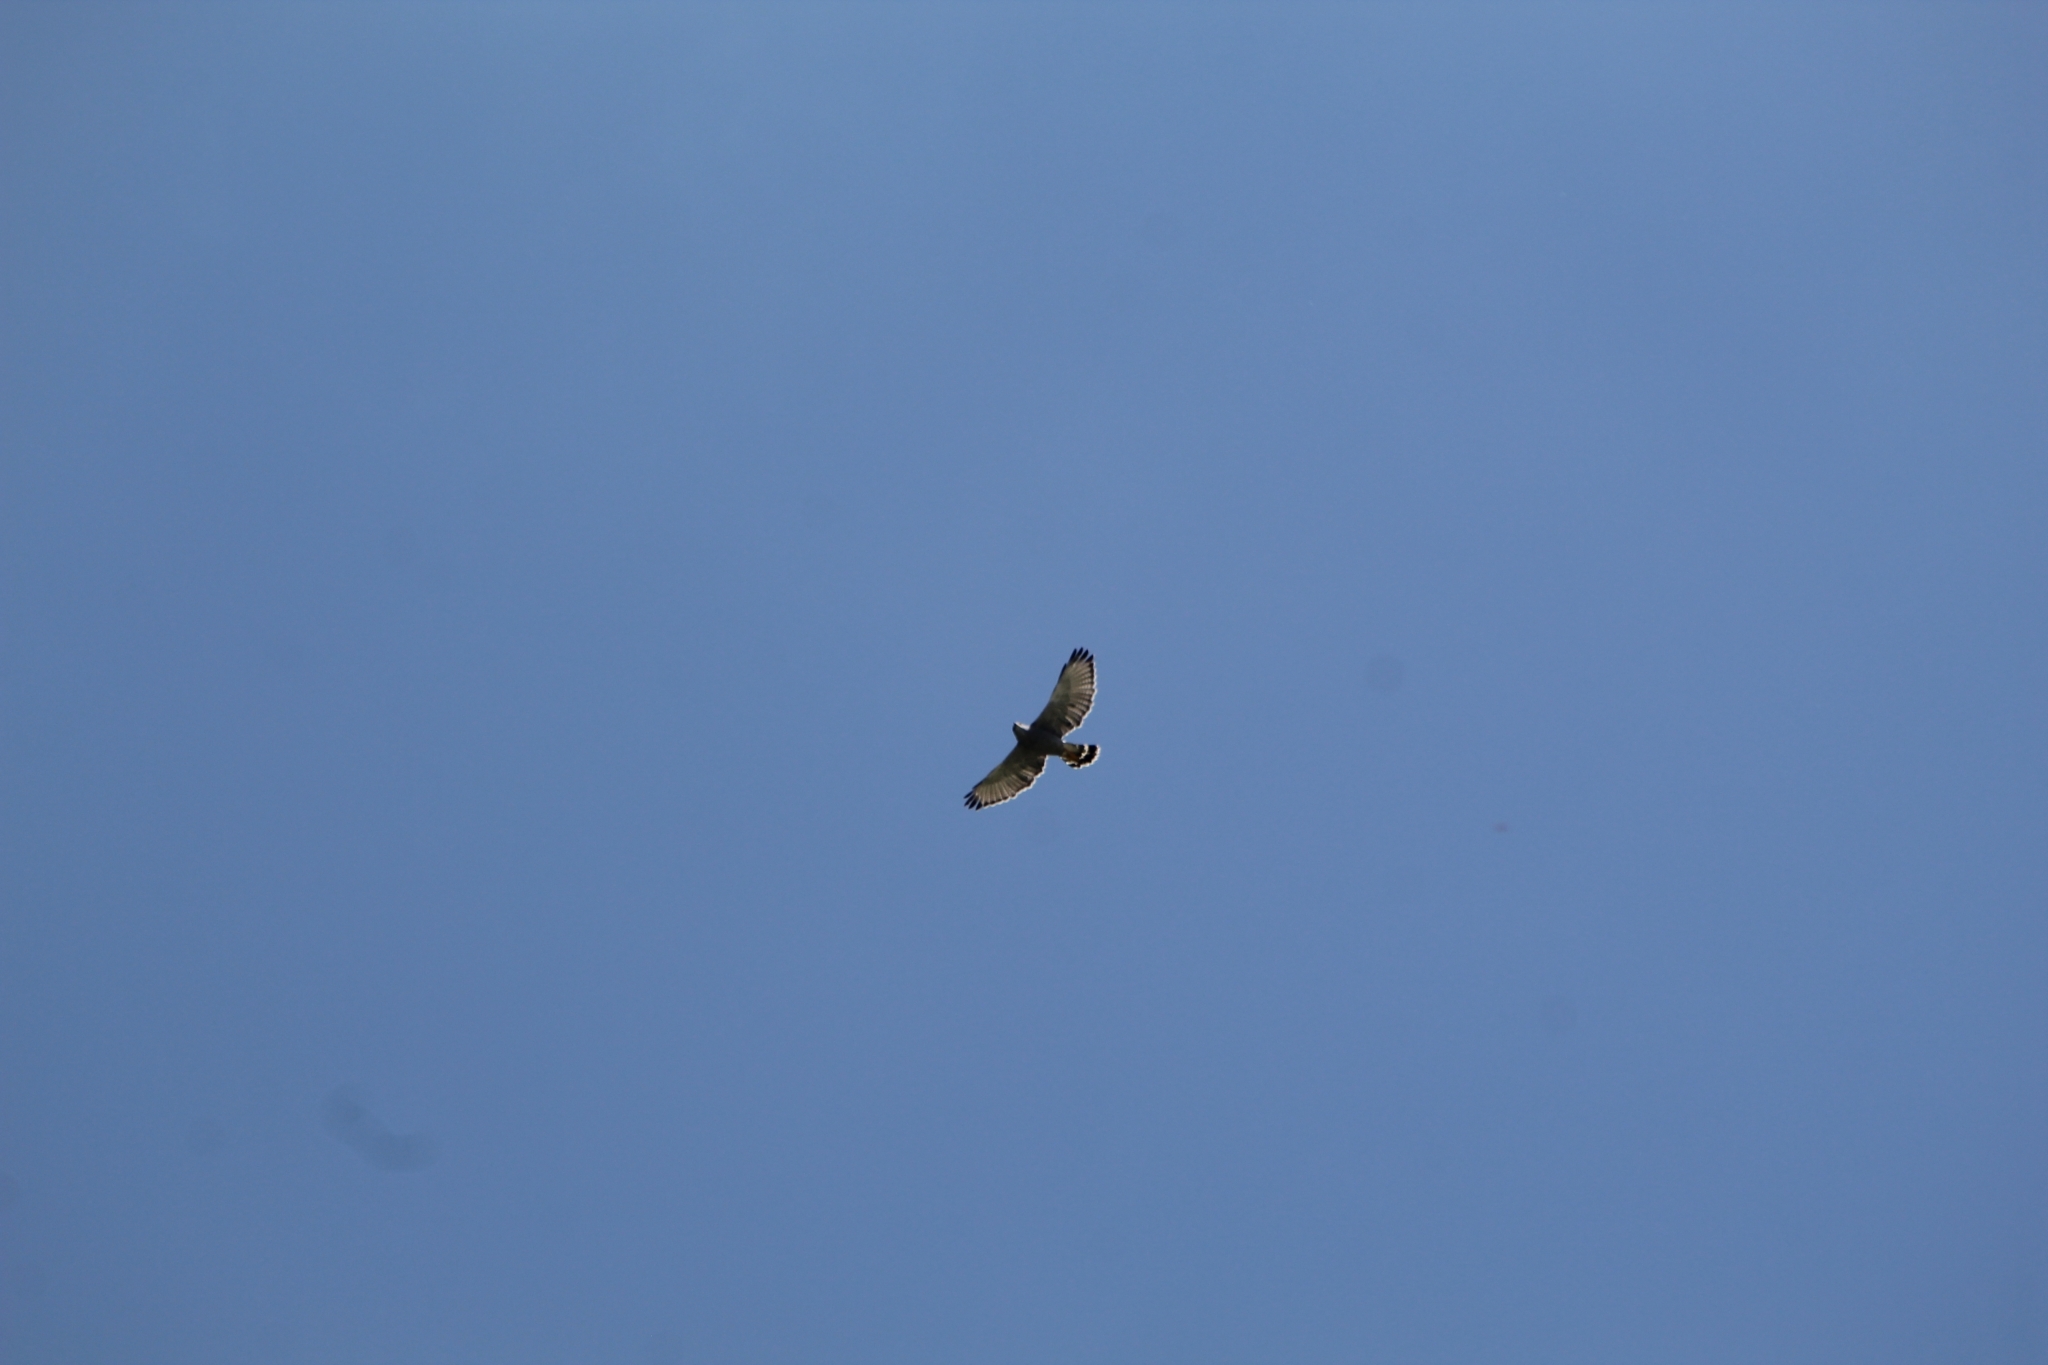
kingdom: Animalia
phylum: Chordata
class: Aves
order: Accipitriformes
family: Accipitridae
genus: Buteo
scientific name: Buteo nitidus
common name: Grey-lined hawk
